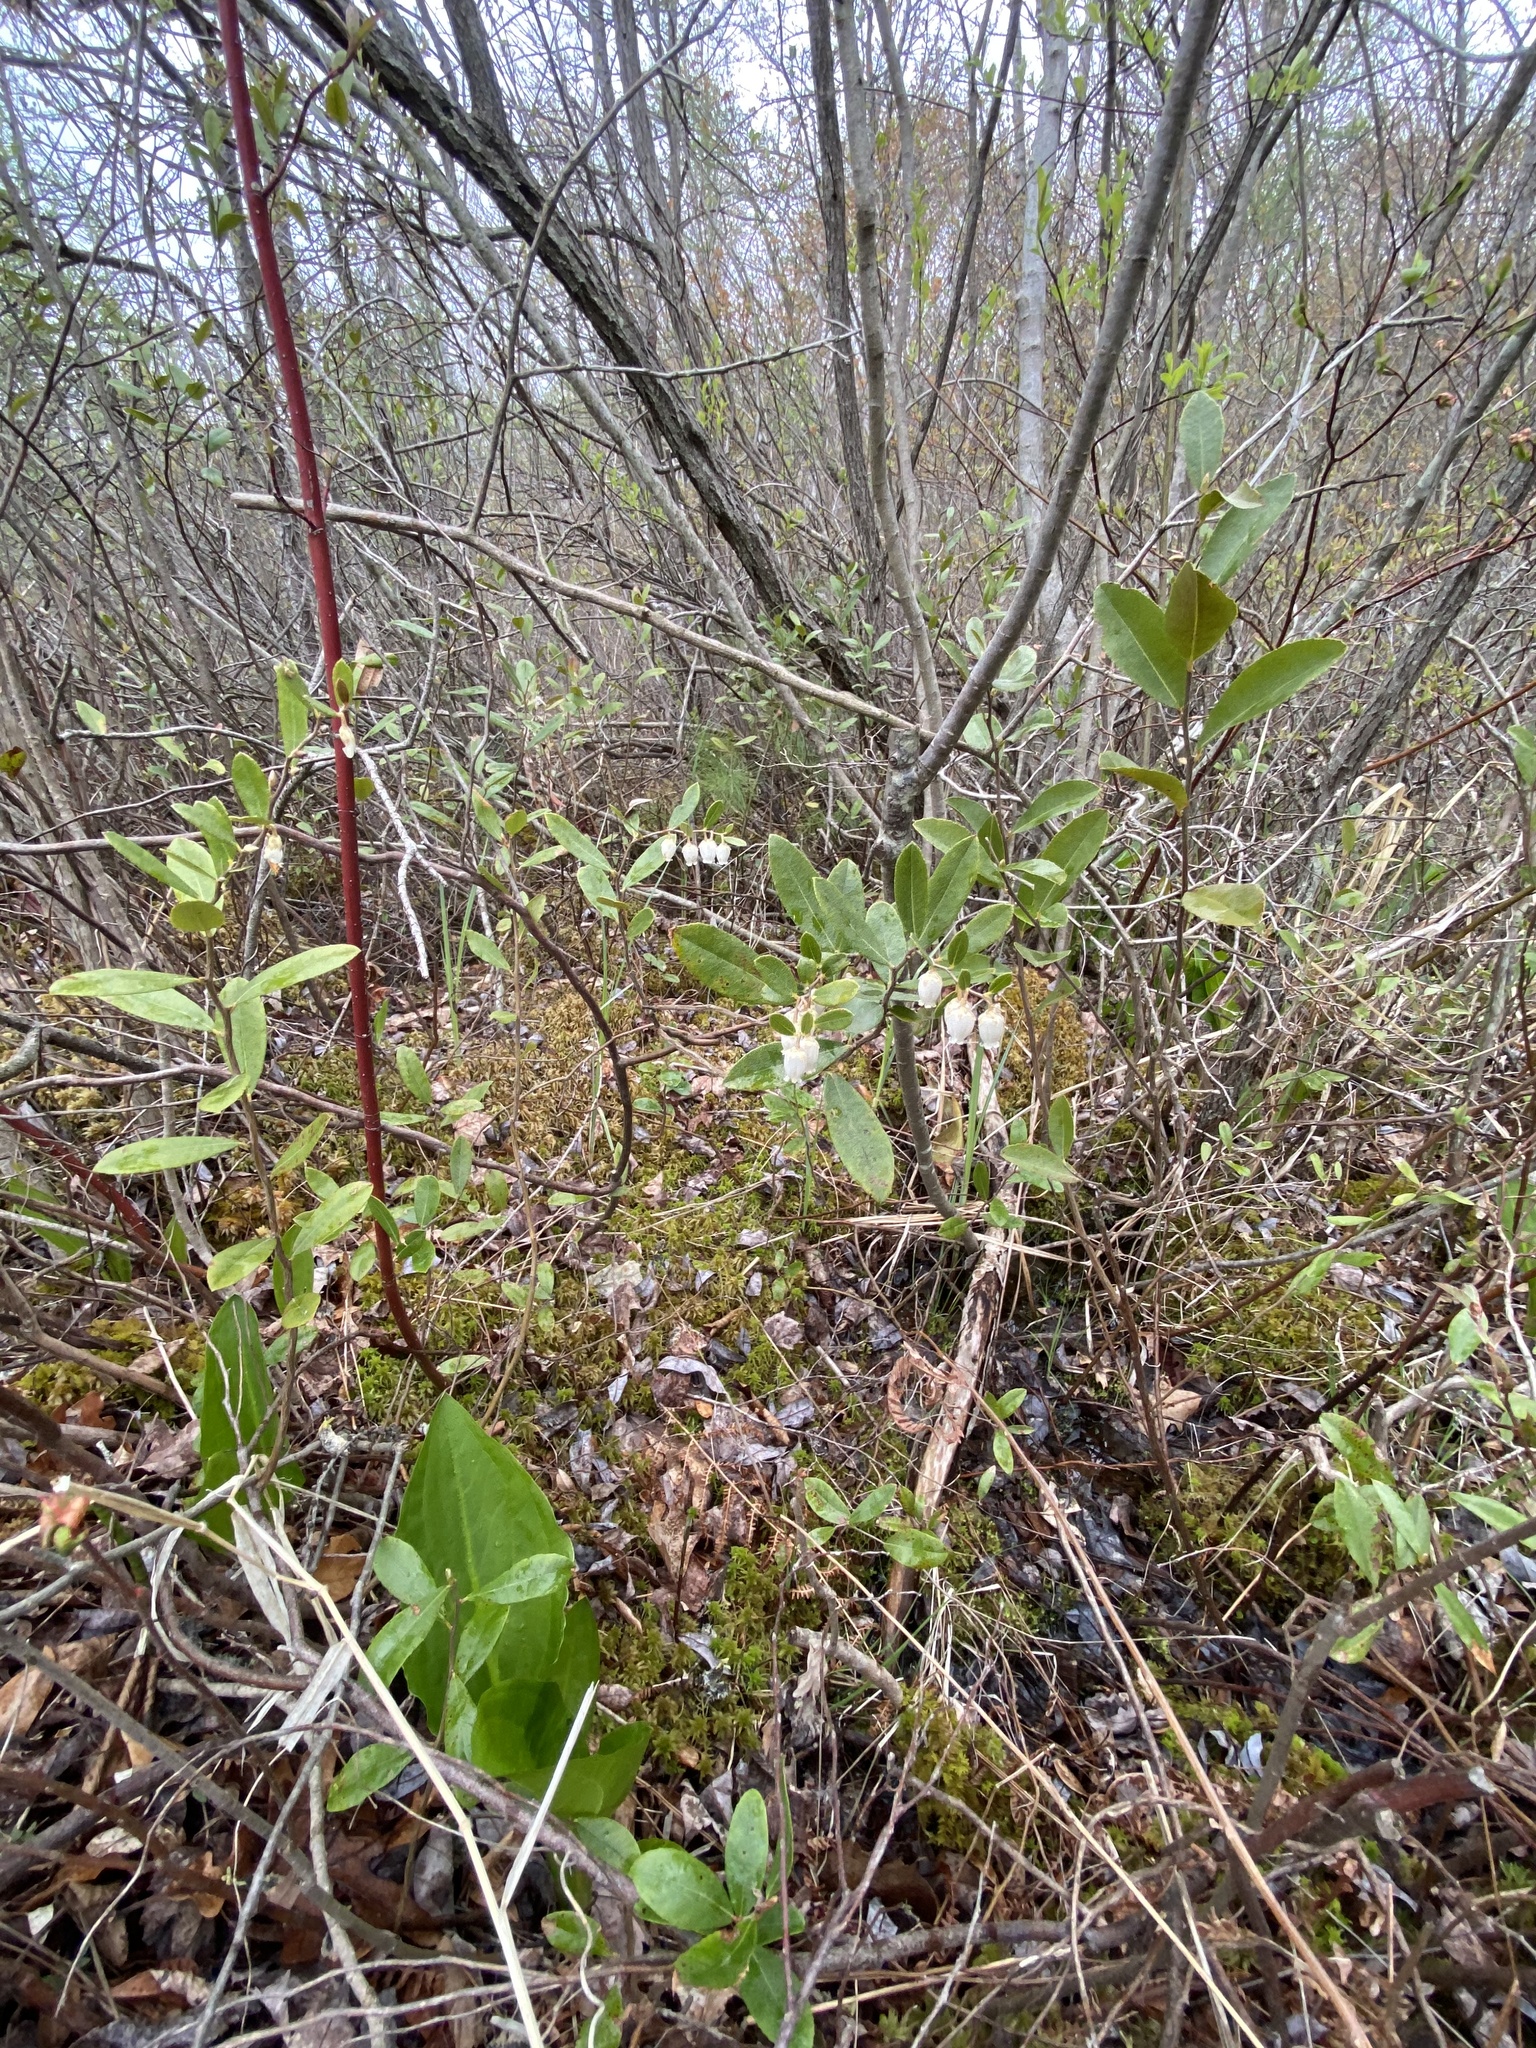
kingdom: Plantae
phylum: Tracheophyta
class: Magnoliopsida
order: Ericales
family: Ericaceae
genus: Chamaedaphne
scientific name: Chamaedaphne calyculata
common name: Leatherleaf
